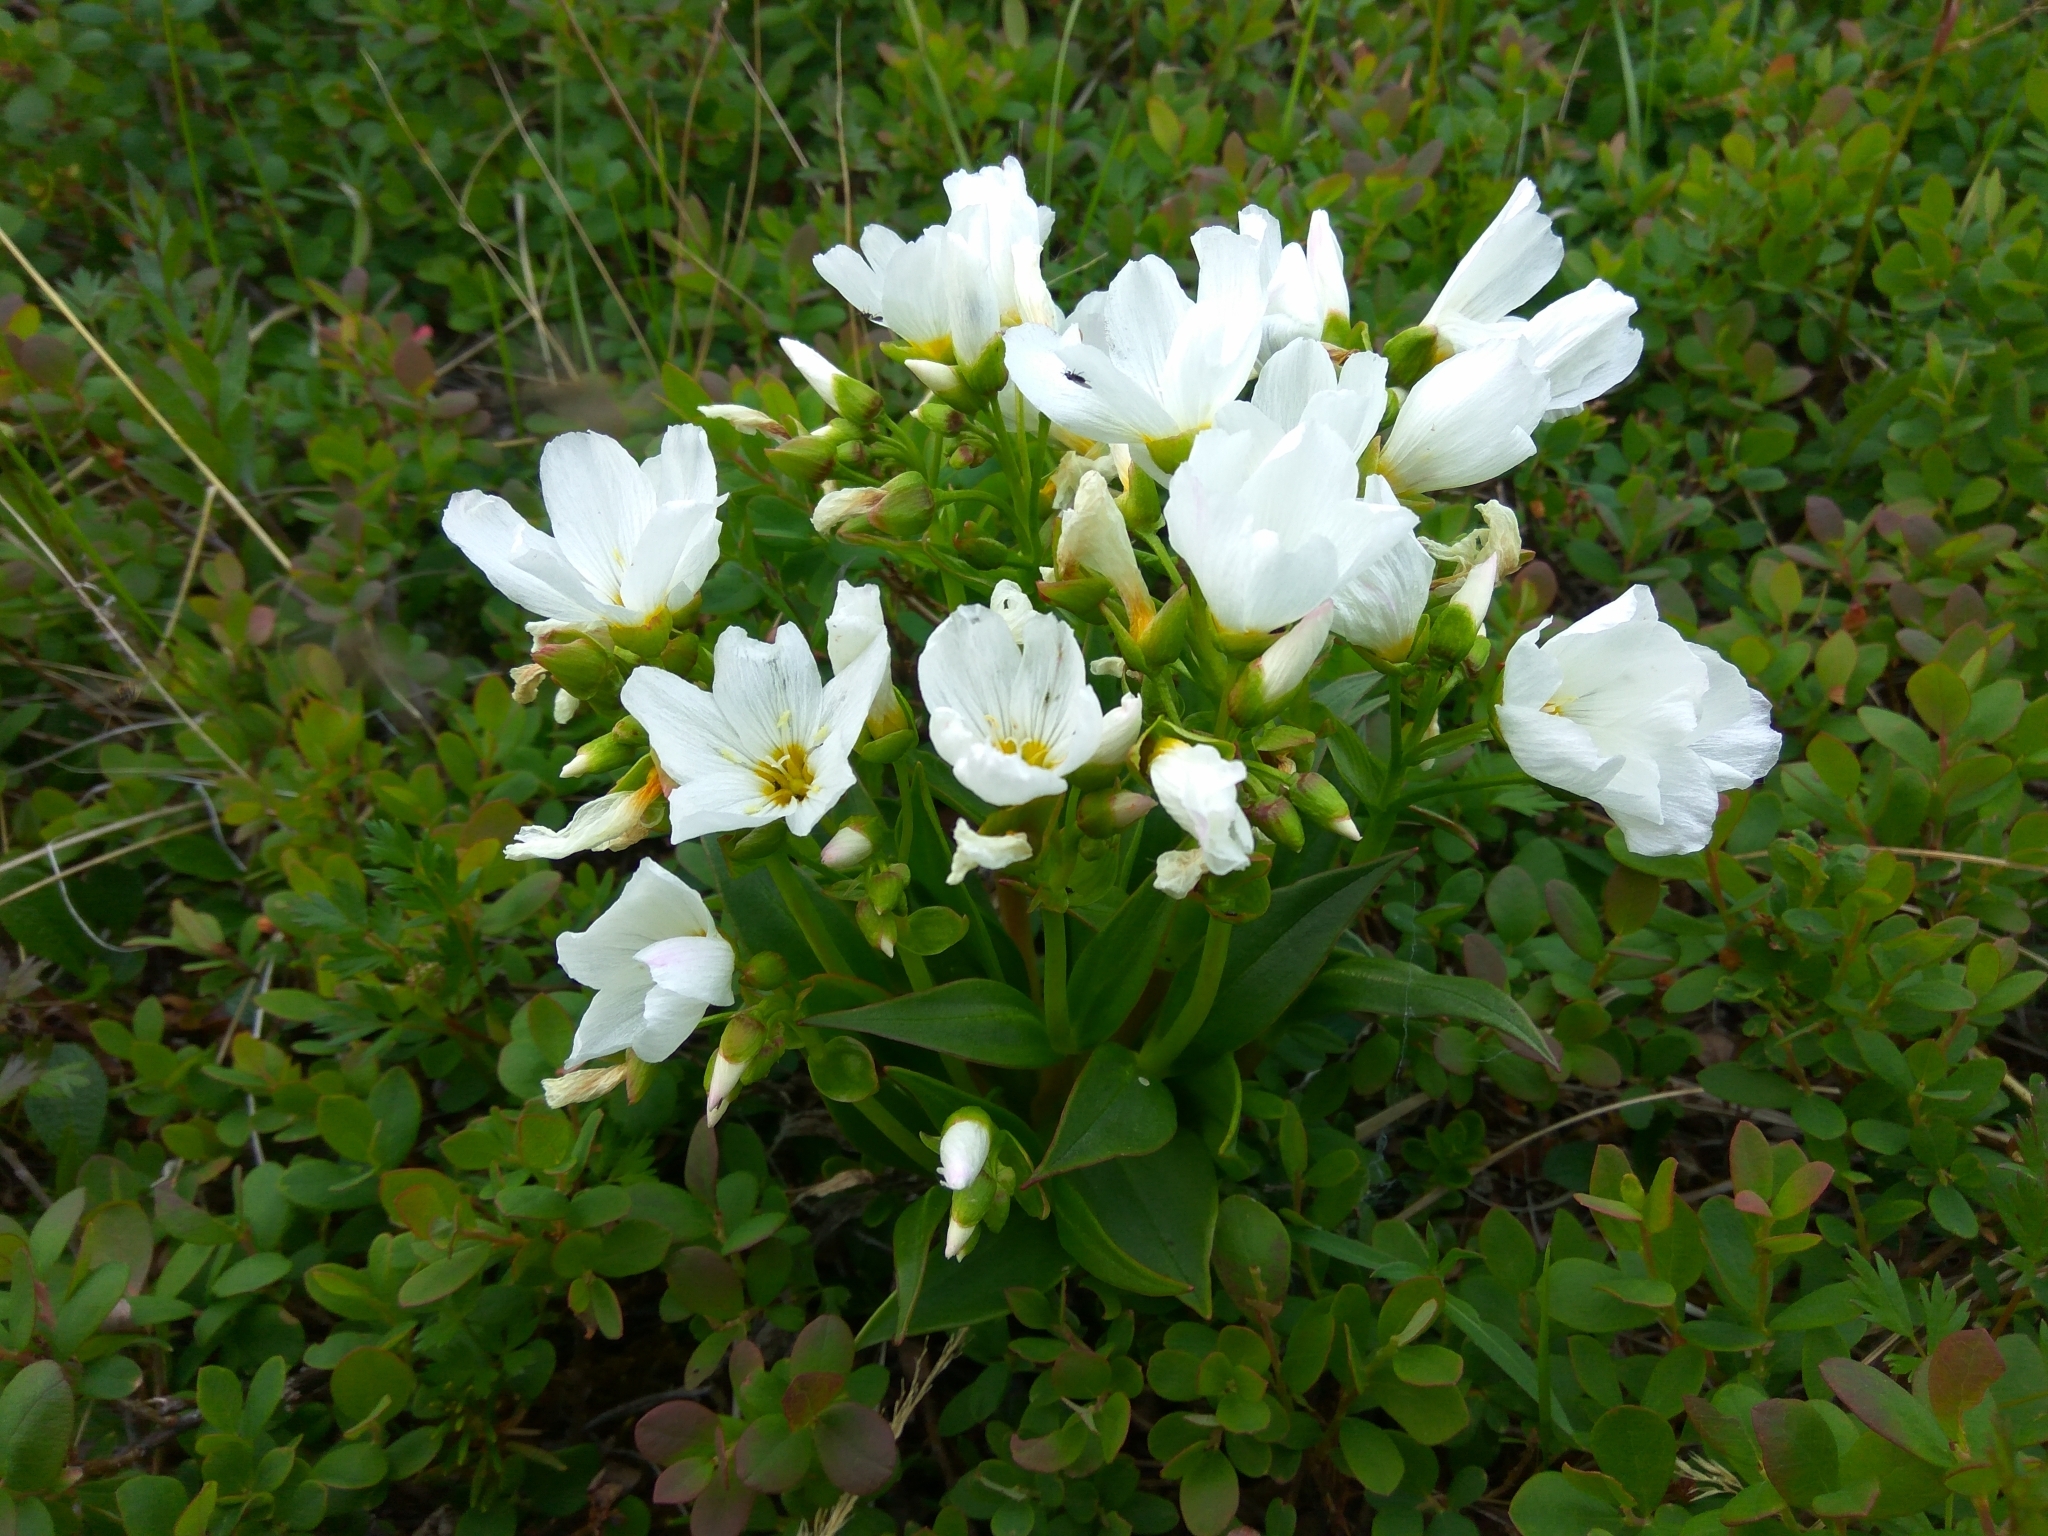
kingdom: Plantae
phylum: Tracheophyta
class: Magnoliopsida
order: Caryophyllales
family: Caryophyllaceae
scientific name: Caryophyllaceae
